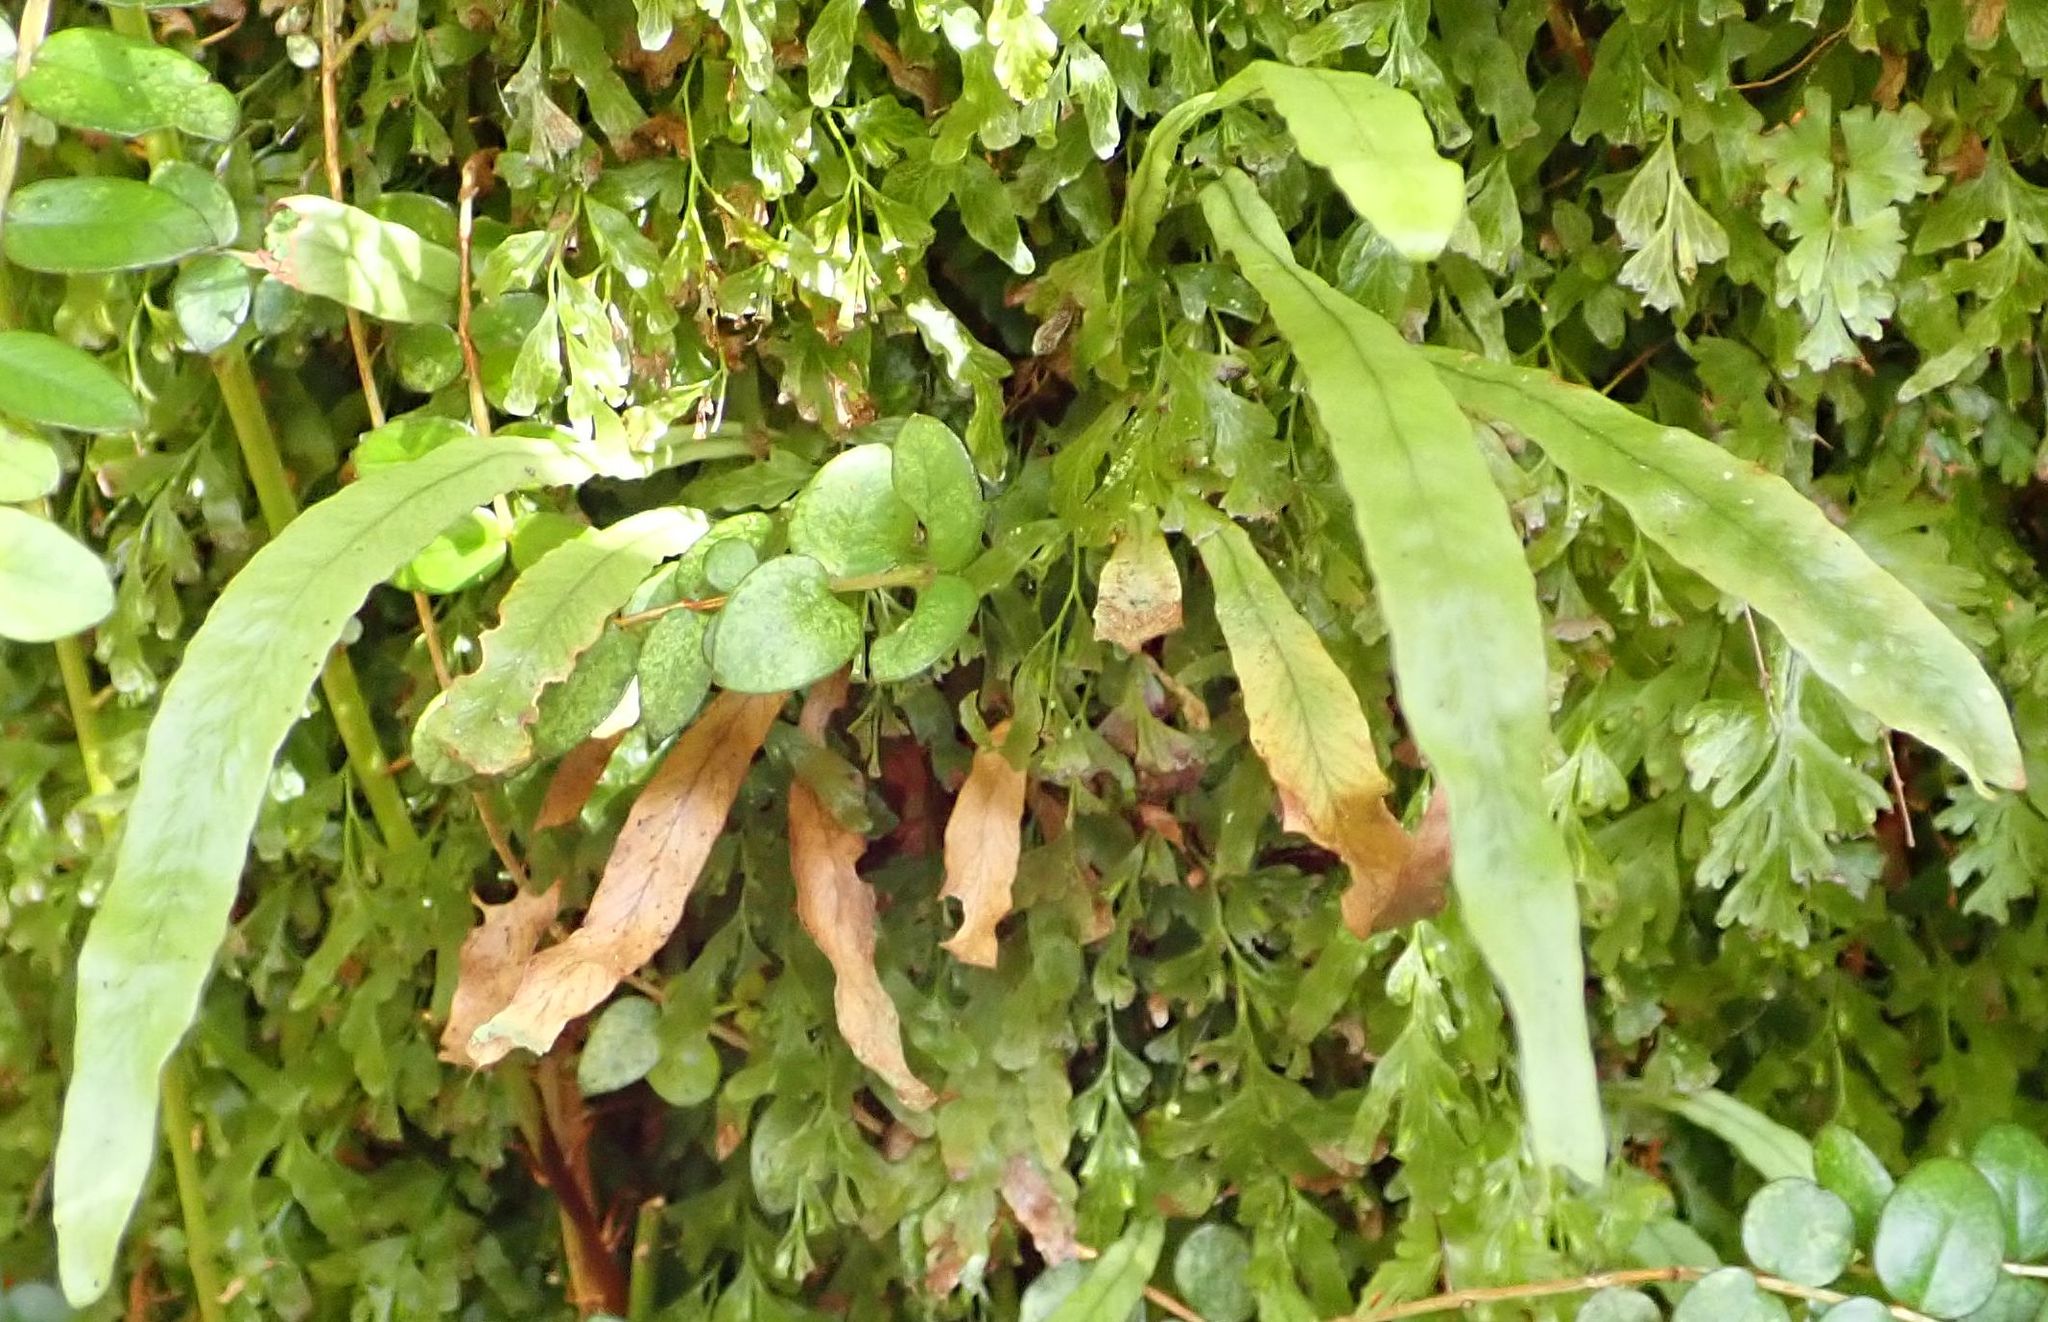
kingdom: Plantae
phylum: Tracheophyta
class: Polypodiopsida
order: Polypodiales
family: Polypodiaceae
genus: Notogrammitis
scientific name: Notogrammitis billardierei
